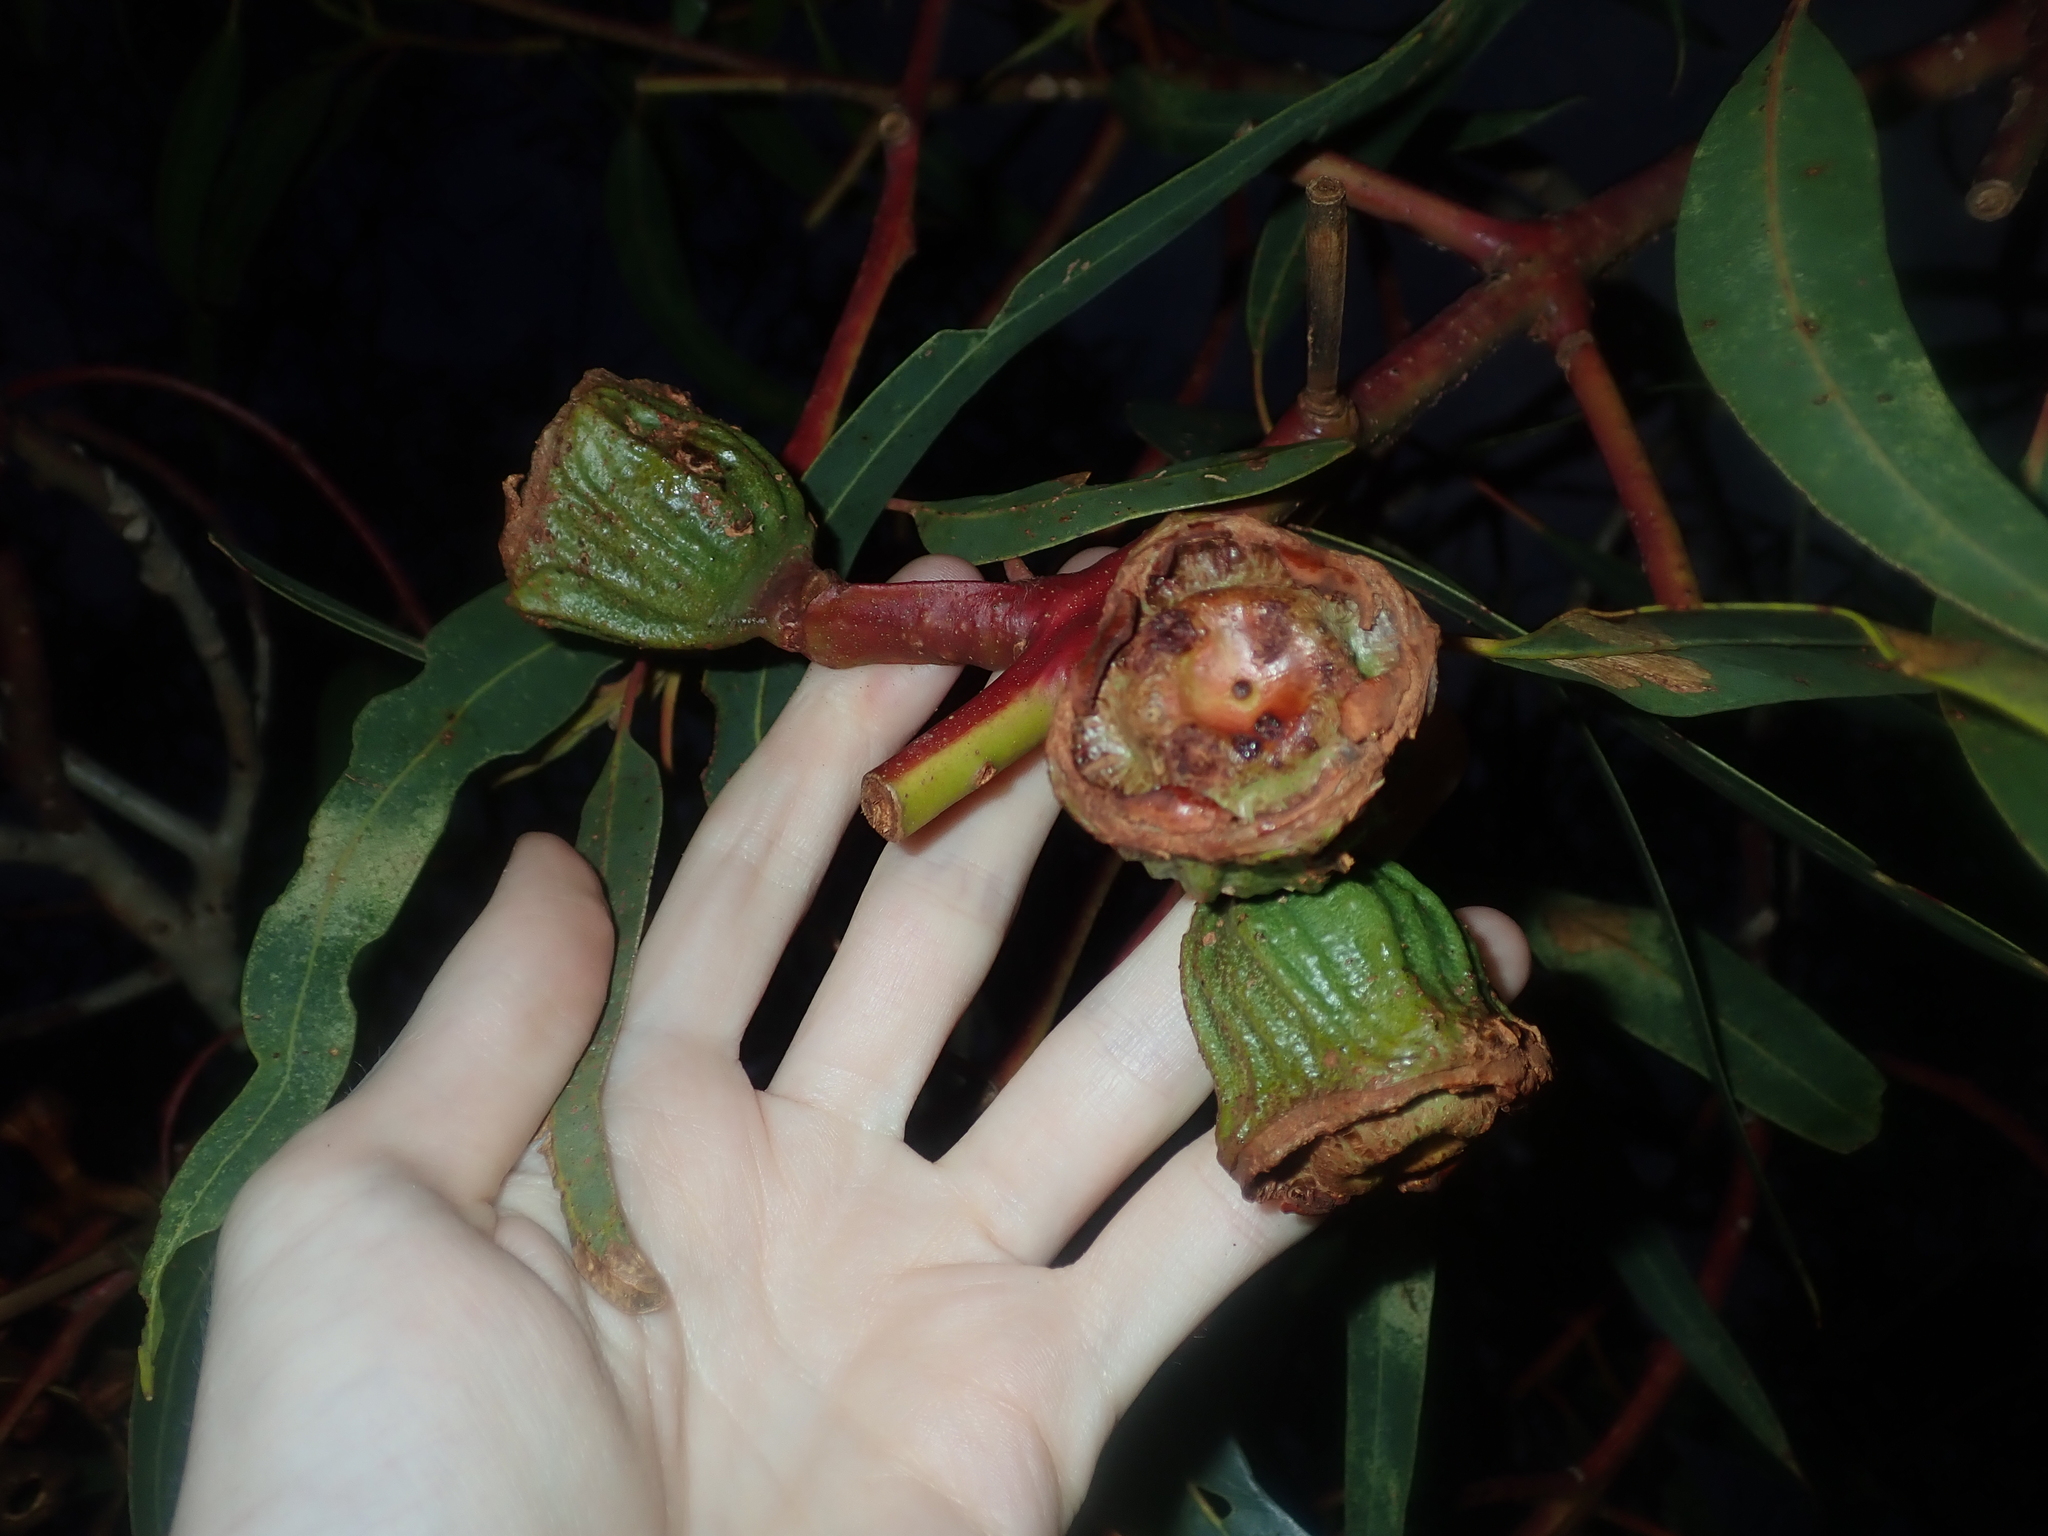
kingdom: Plantae
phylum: Tracheophyta
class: Magnoliopsida
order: Myrtales
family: Myrtaceae
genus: Eucalyptus
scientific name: Eucalyptus erythrocorys
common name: Bookara gum
